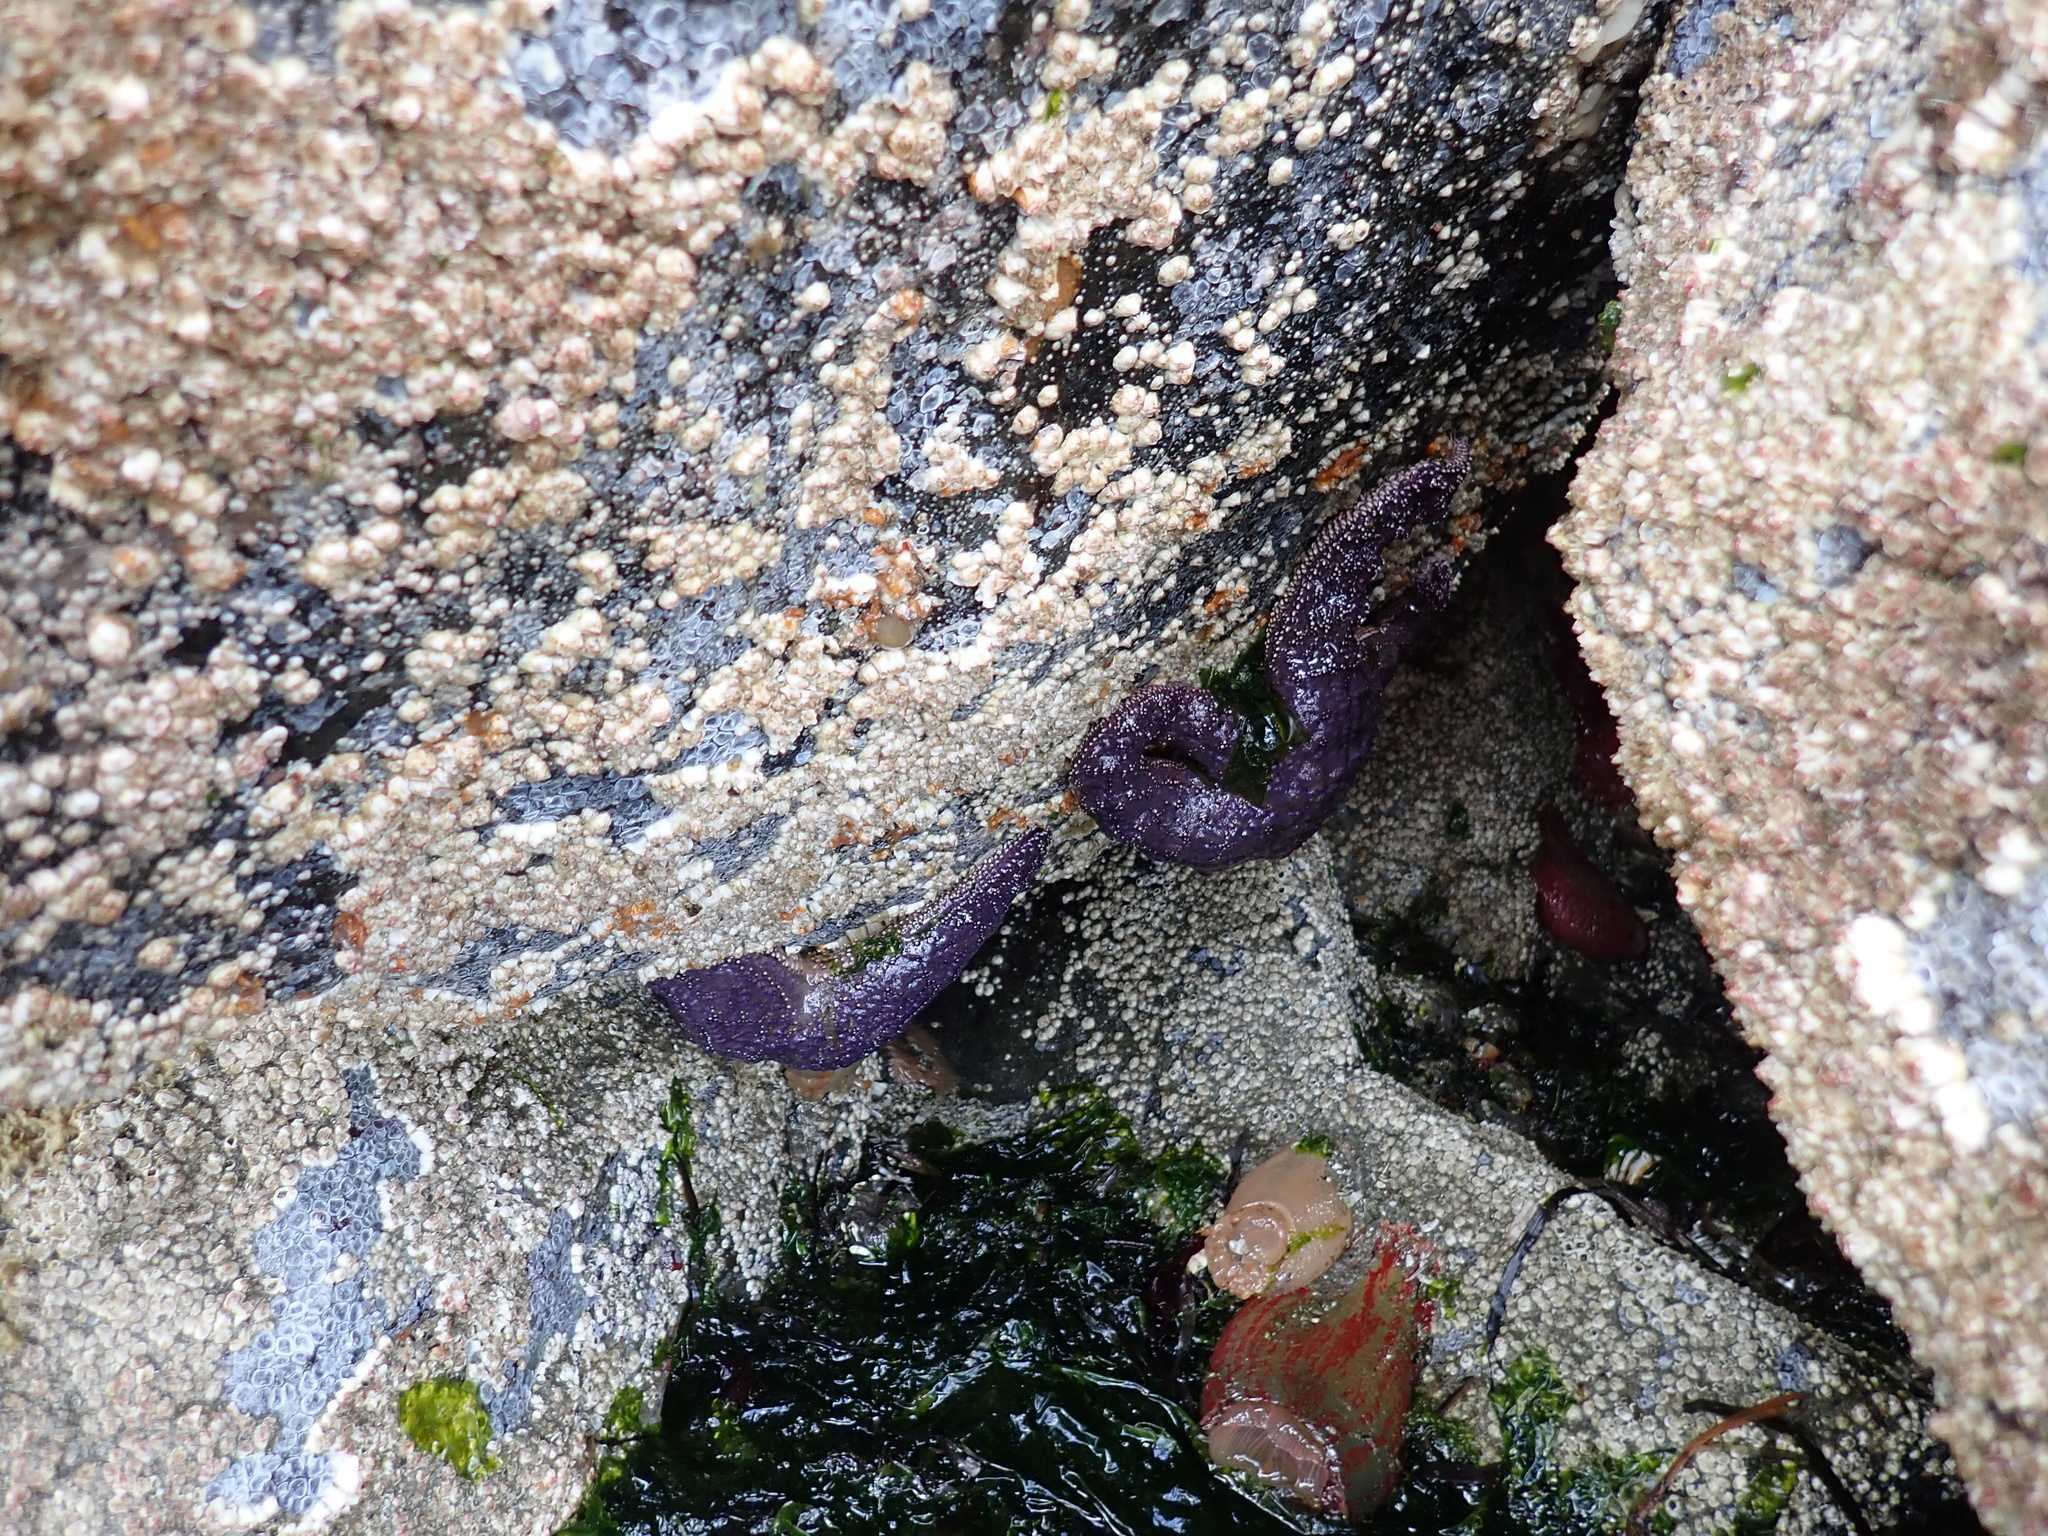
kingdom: Animalia
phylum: Echinodermata
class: Asteroidea
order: Forcipulatida
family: Asteriidae
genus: Pisaster
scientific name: Pisaster ochraceus
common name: Ochre stars
